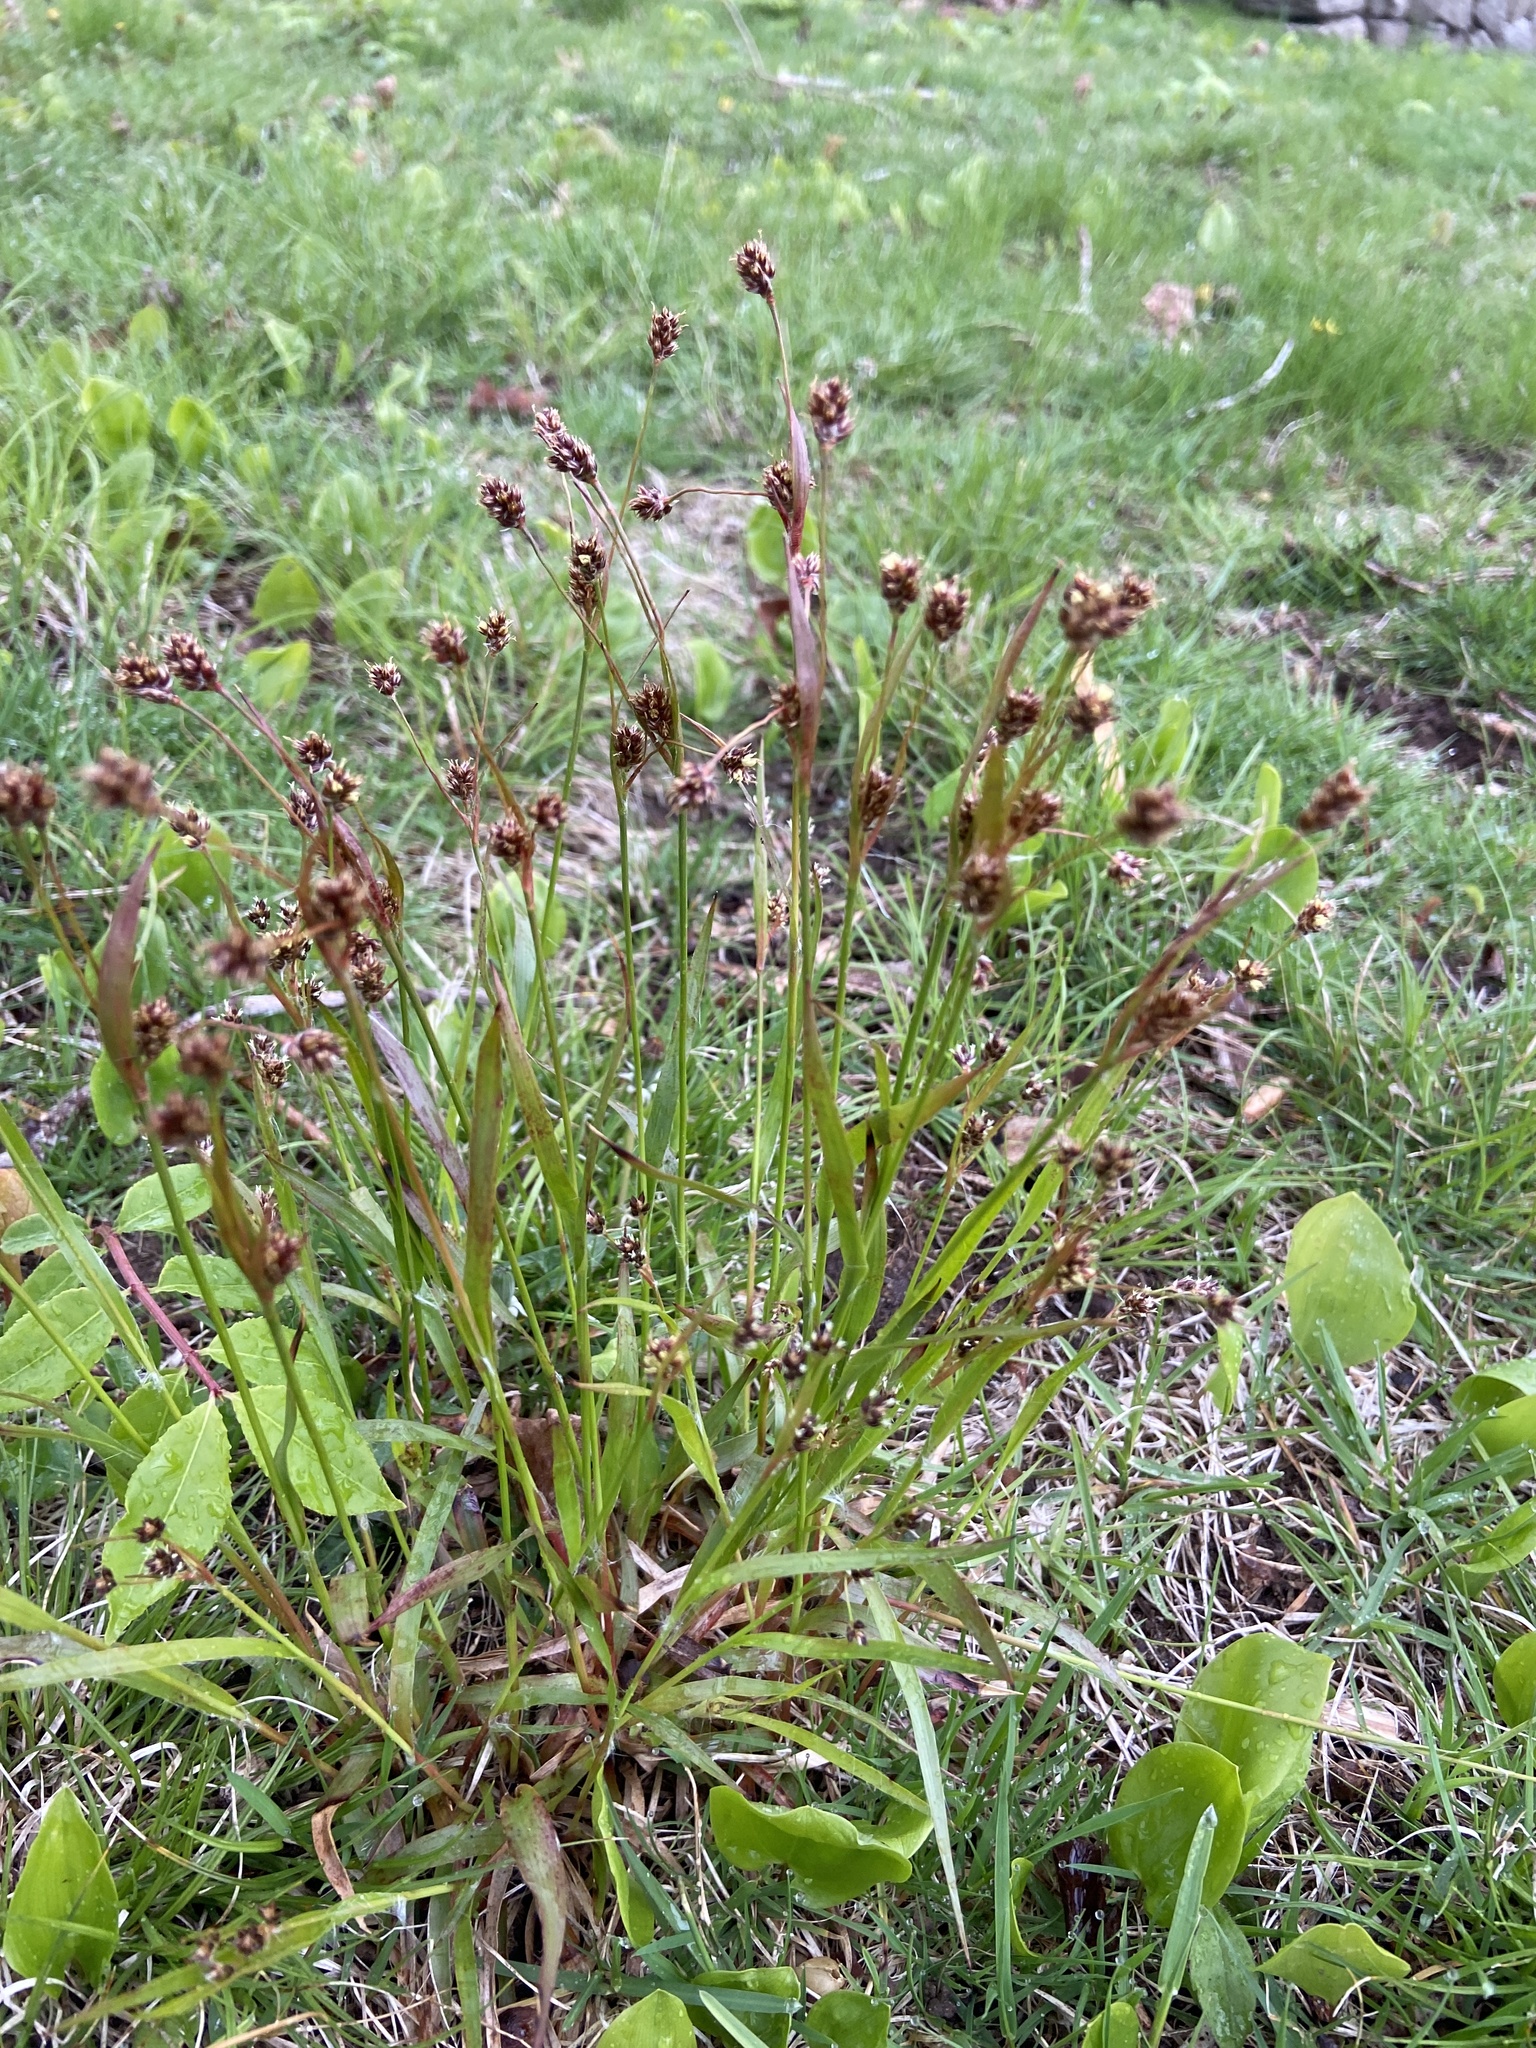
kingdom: Plantae
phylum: Tracheophyta
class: Liliopsida
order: Poales
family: Juncaceae
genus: Luzula
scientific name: Luzula multiflora
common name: Heath wood-rush
